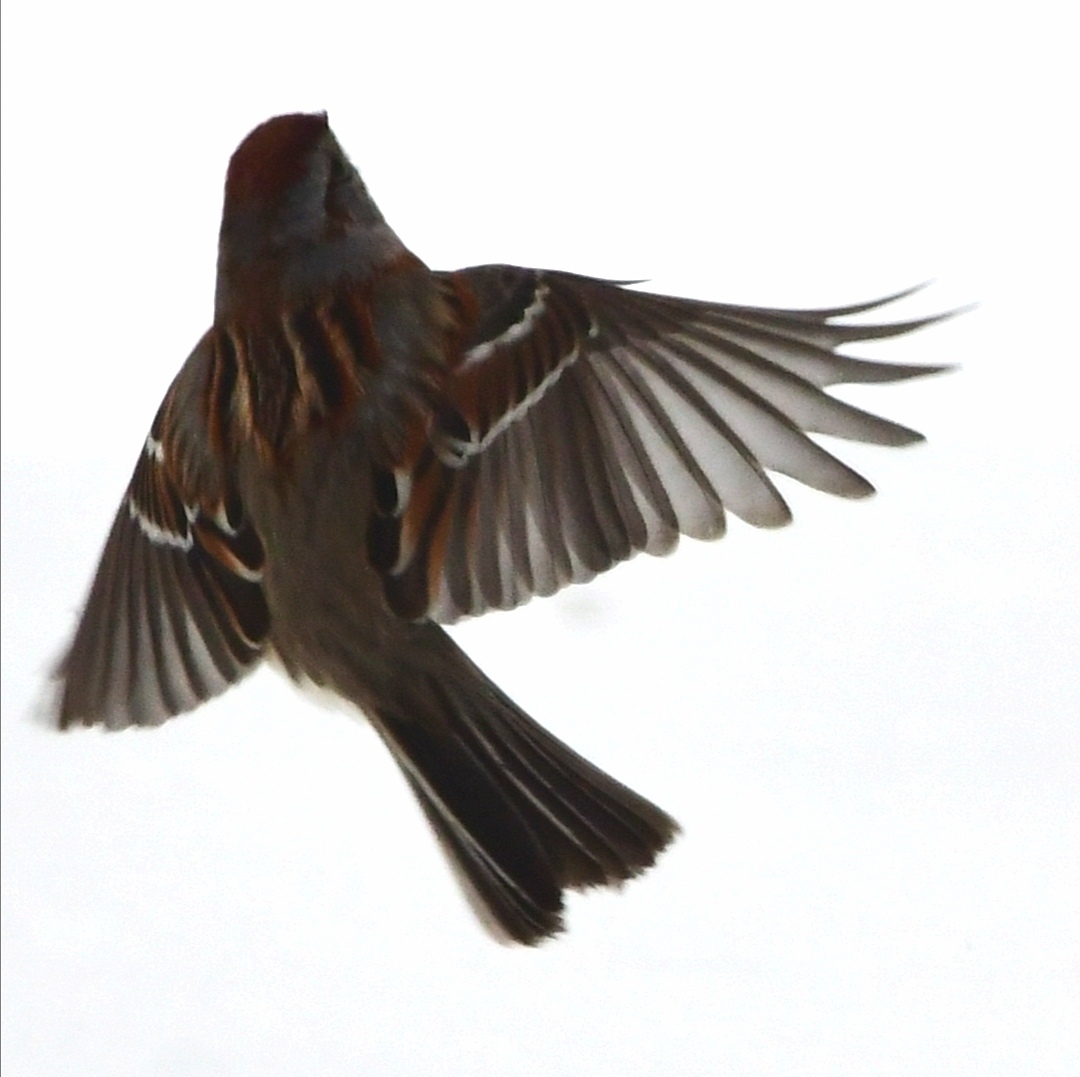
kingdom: Animalia
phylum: Chordata
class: Aves
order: Passeriformes
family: Passerellidae
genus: Spizelloides
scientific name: Spizelloides arborea
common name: American tree sparrow
